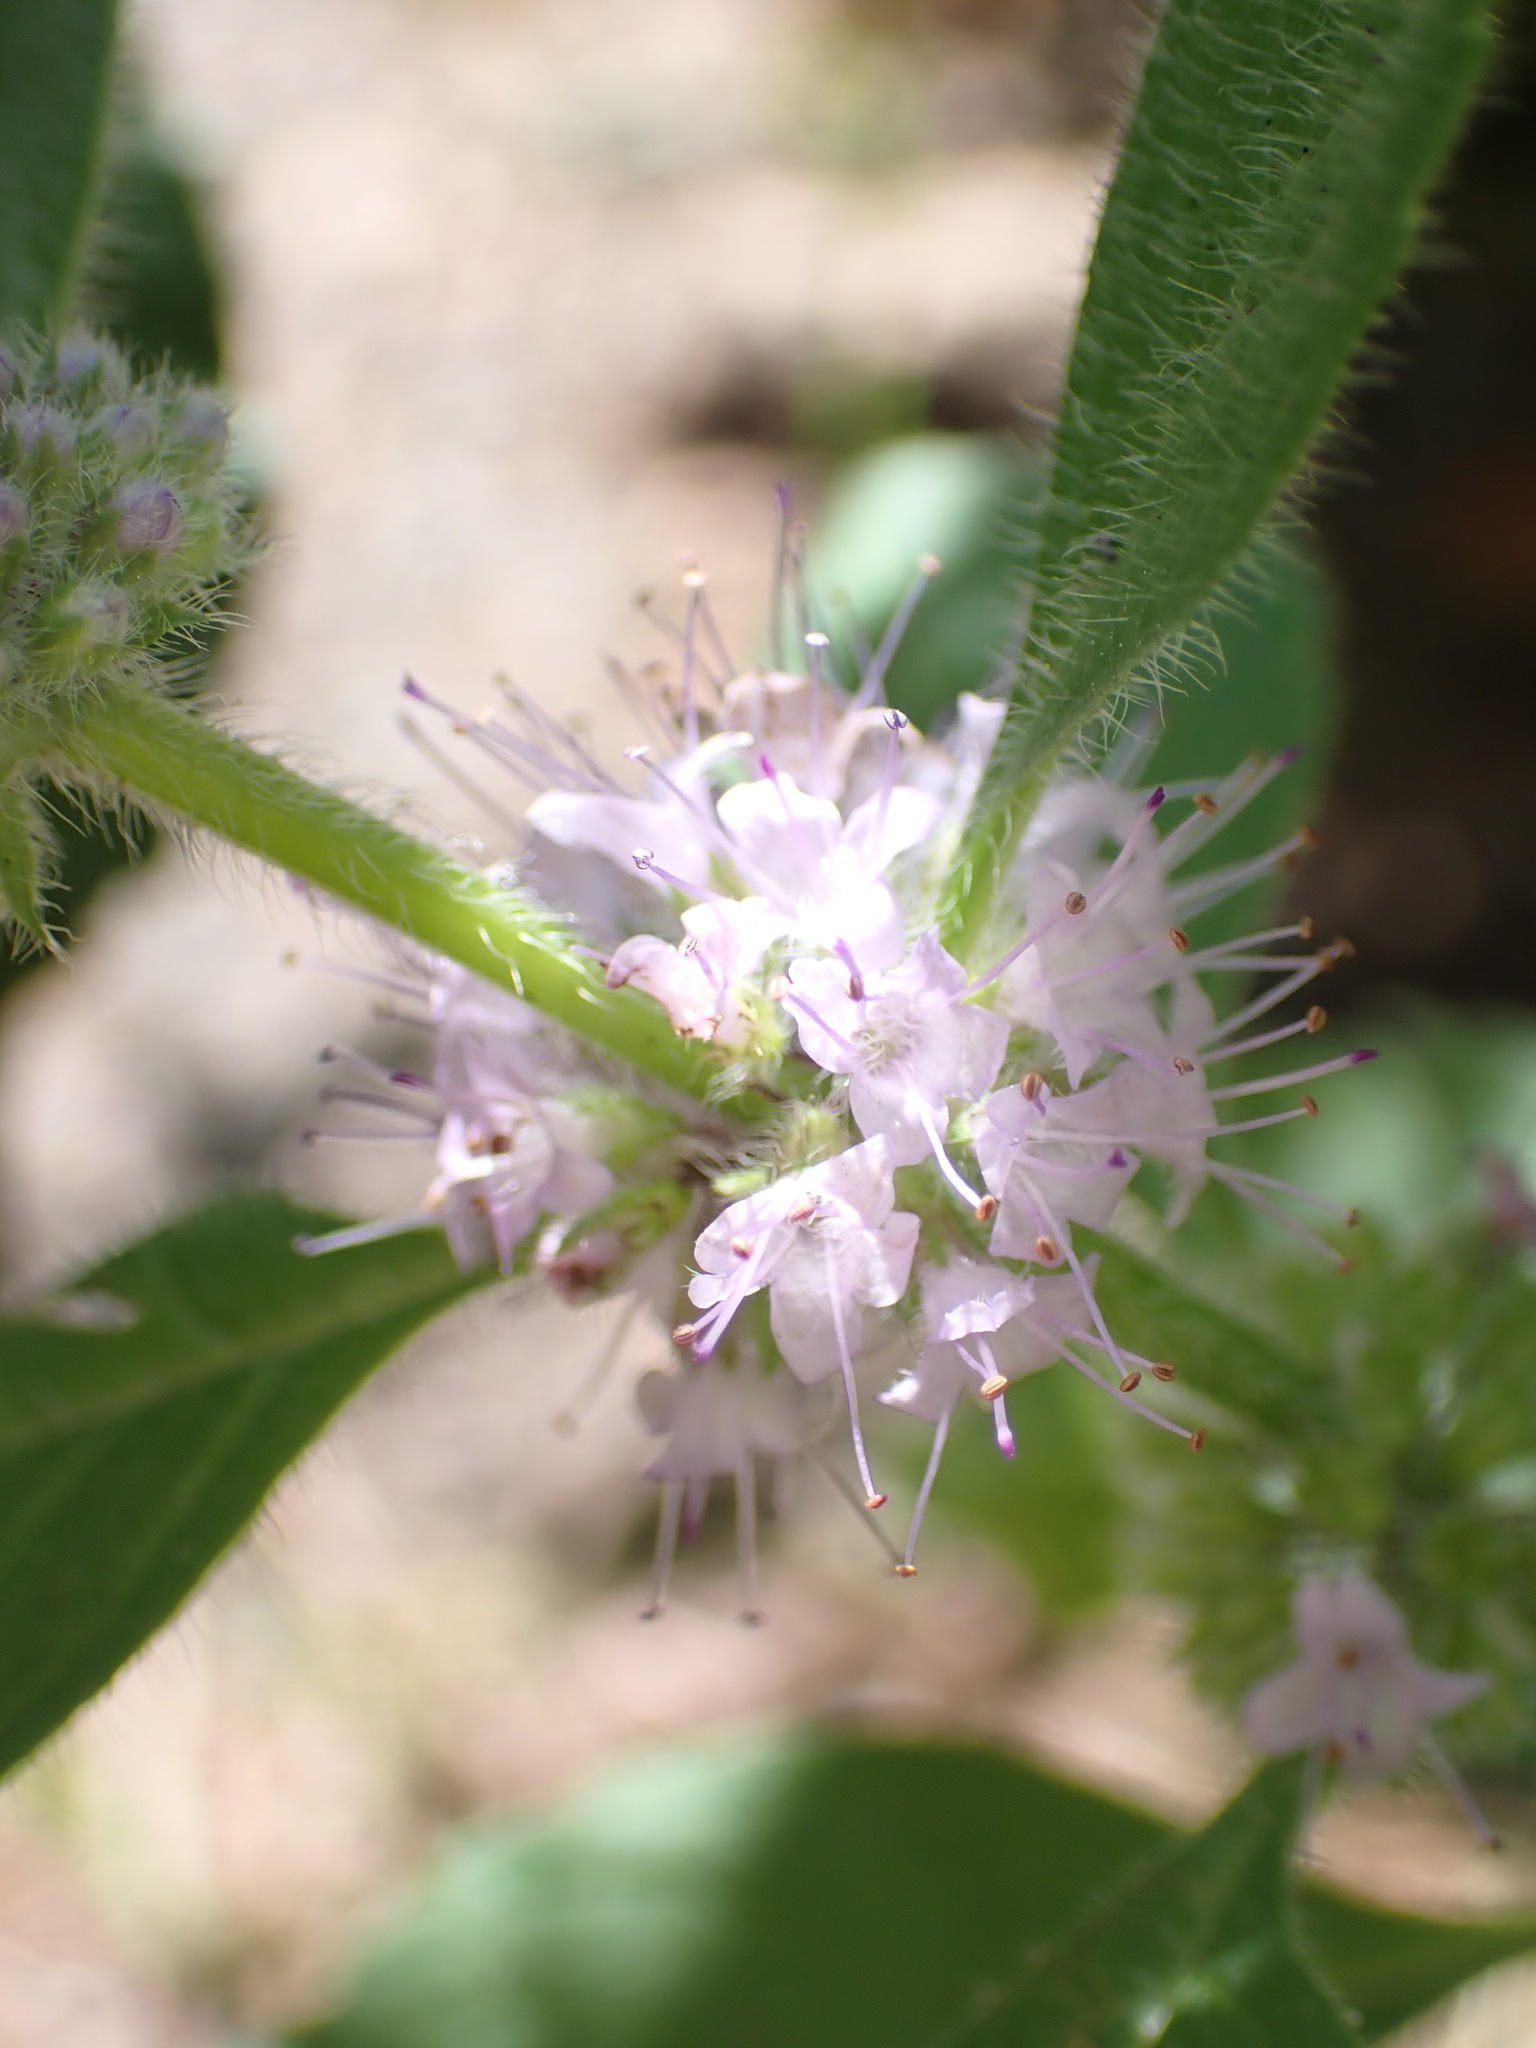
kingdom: Plantae
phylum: Tracheophyta
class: Magnoliopsida
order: Lamiales
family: Lamiaceae
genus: Mentha
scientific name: Mentha arvensis
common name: Corn mint
